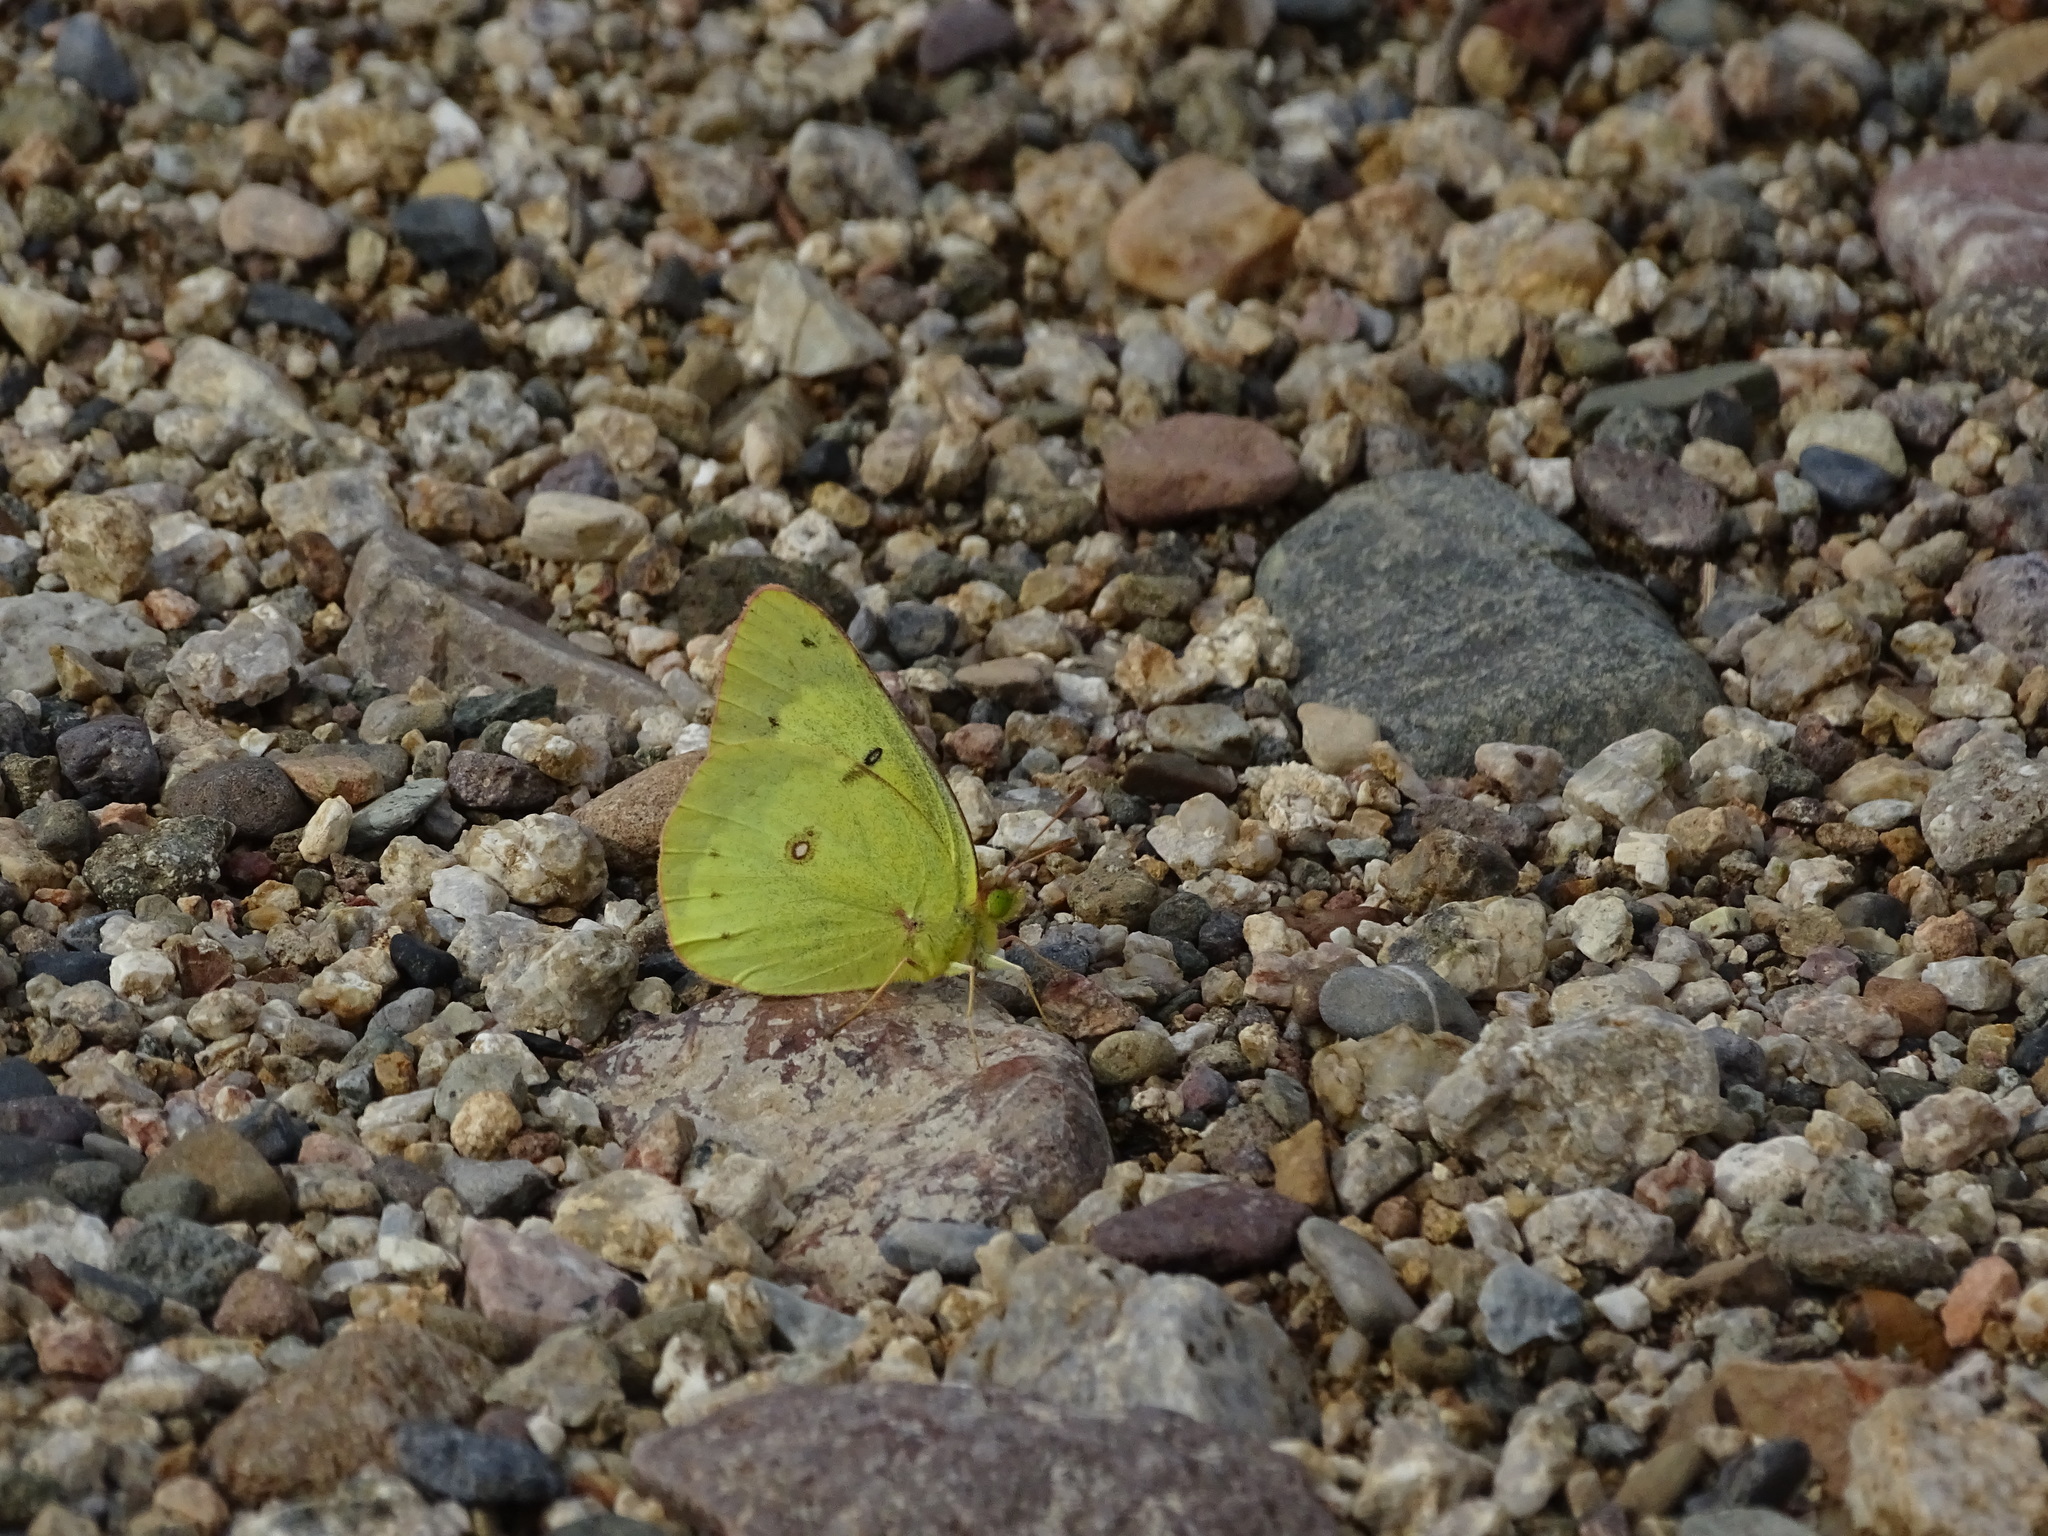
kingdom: Animalia
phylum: Arthropoda
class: Insecta
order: Lepidoptera
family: Pieridae
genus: Colias
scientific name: Colias eurytheme
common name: Alfalfa butterfly
